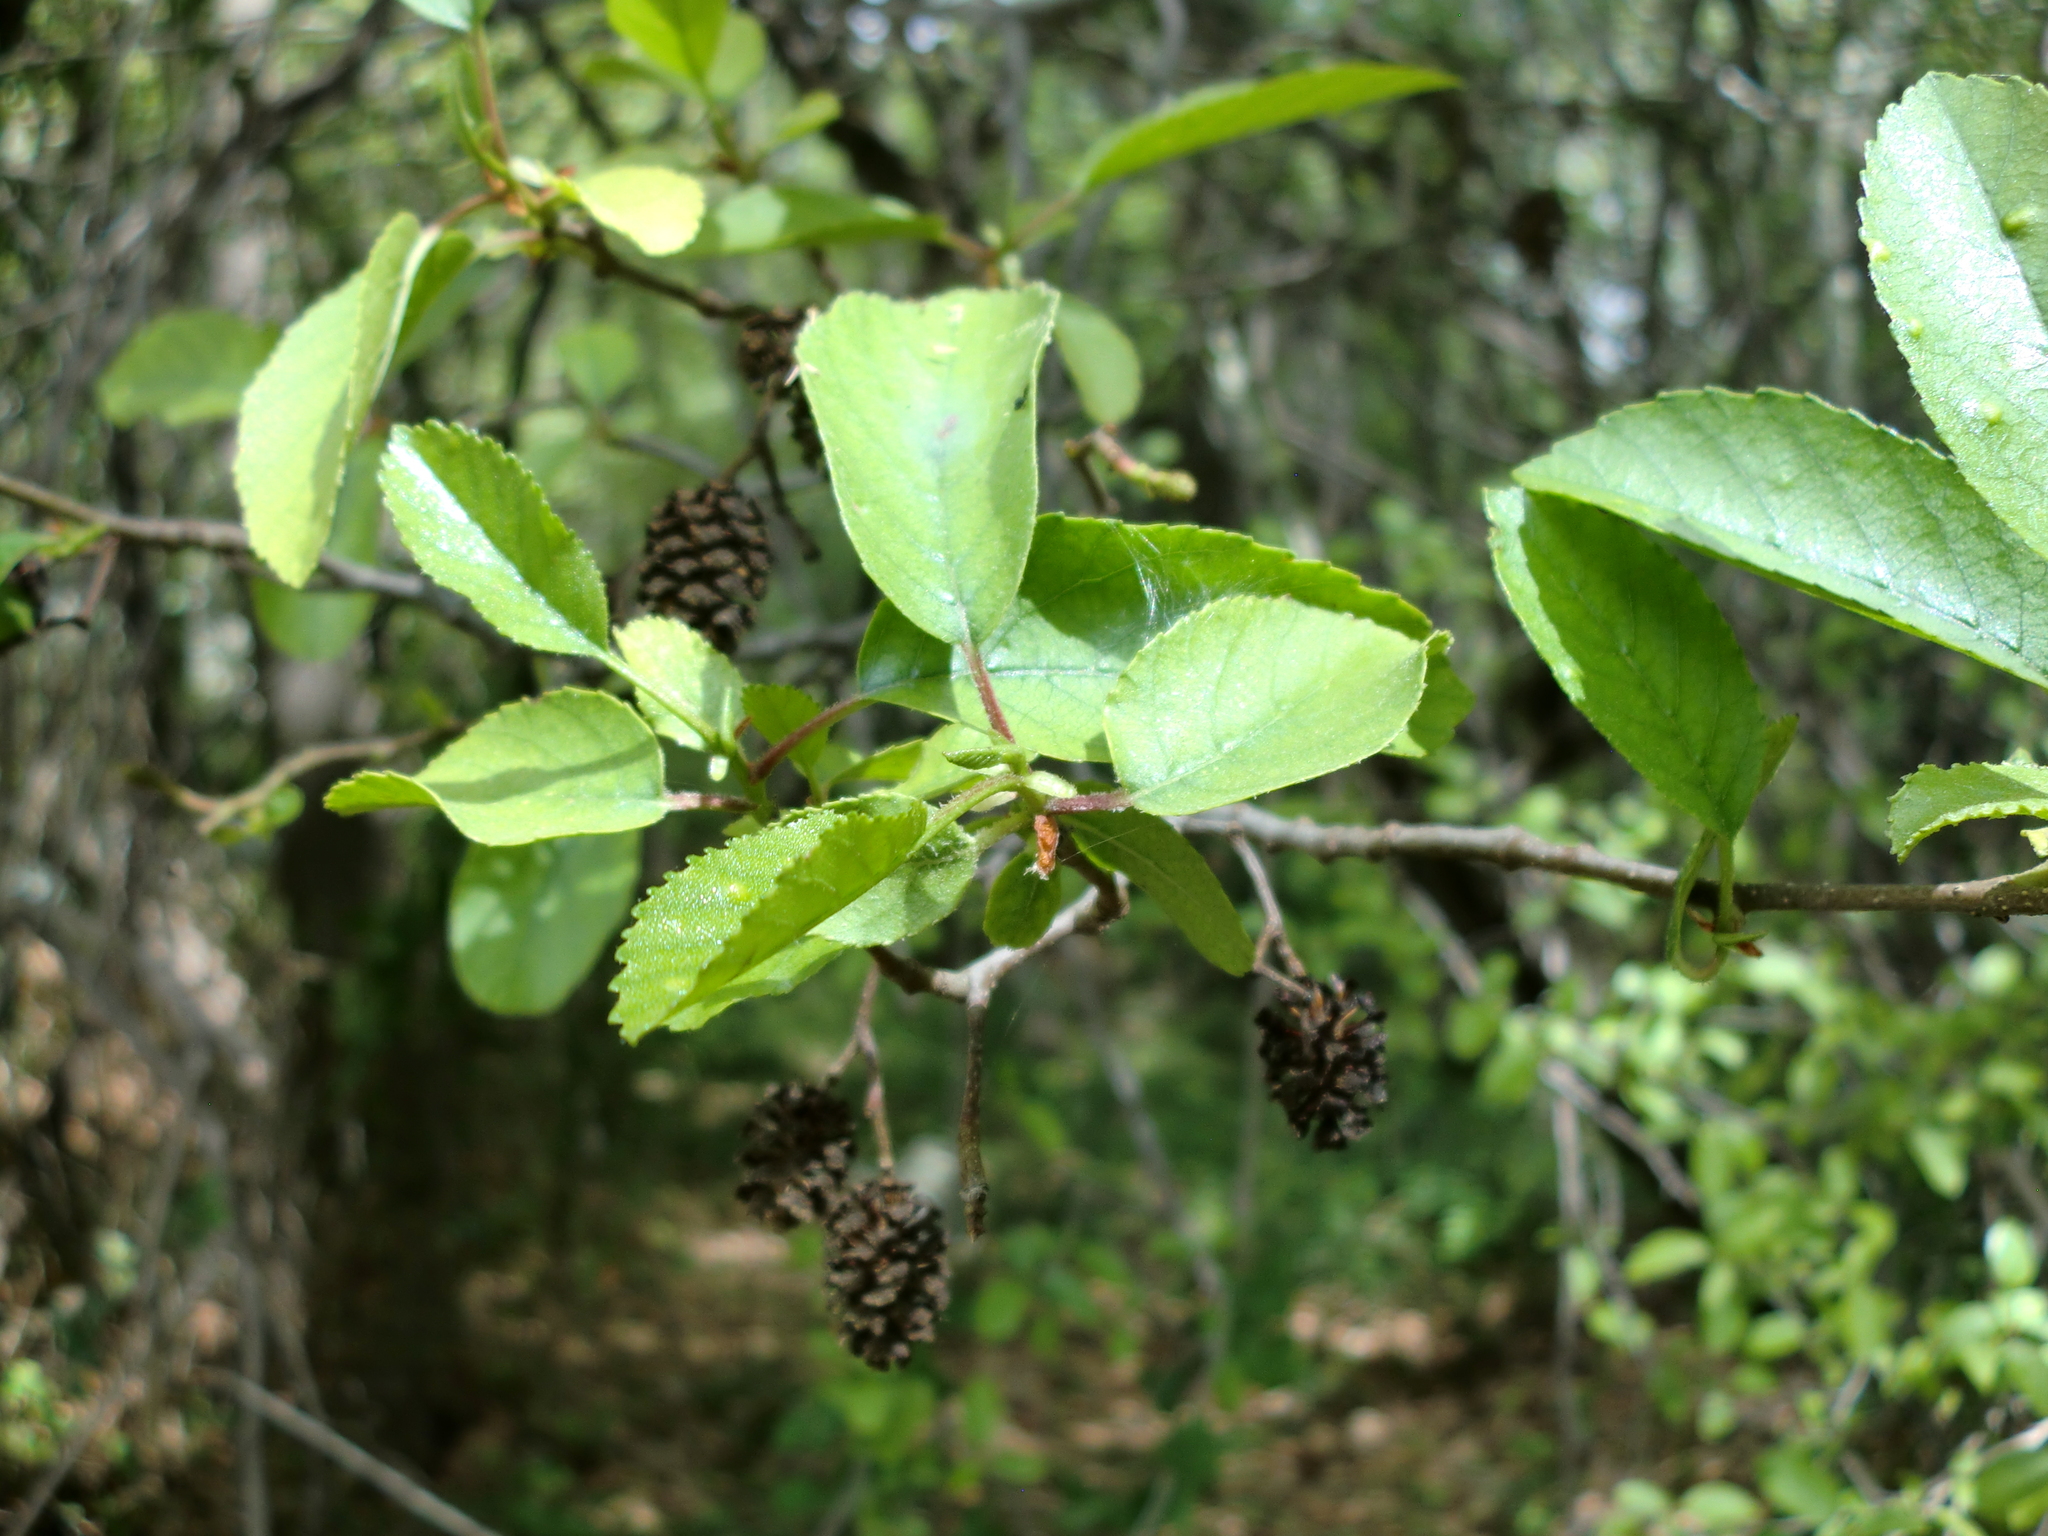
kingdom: Plantae
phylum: Tracheophyta
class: Magnoliopsida
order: Fagales
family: Betulaceae
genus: Alnus
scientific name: Alnus orientalis
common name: Oriental alder
